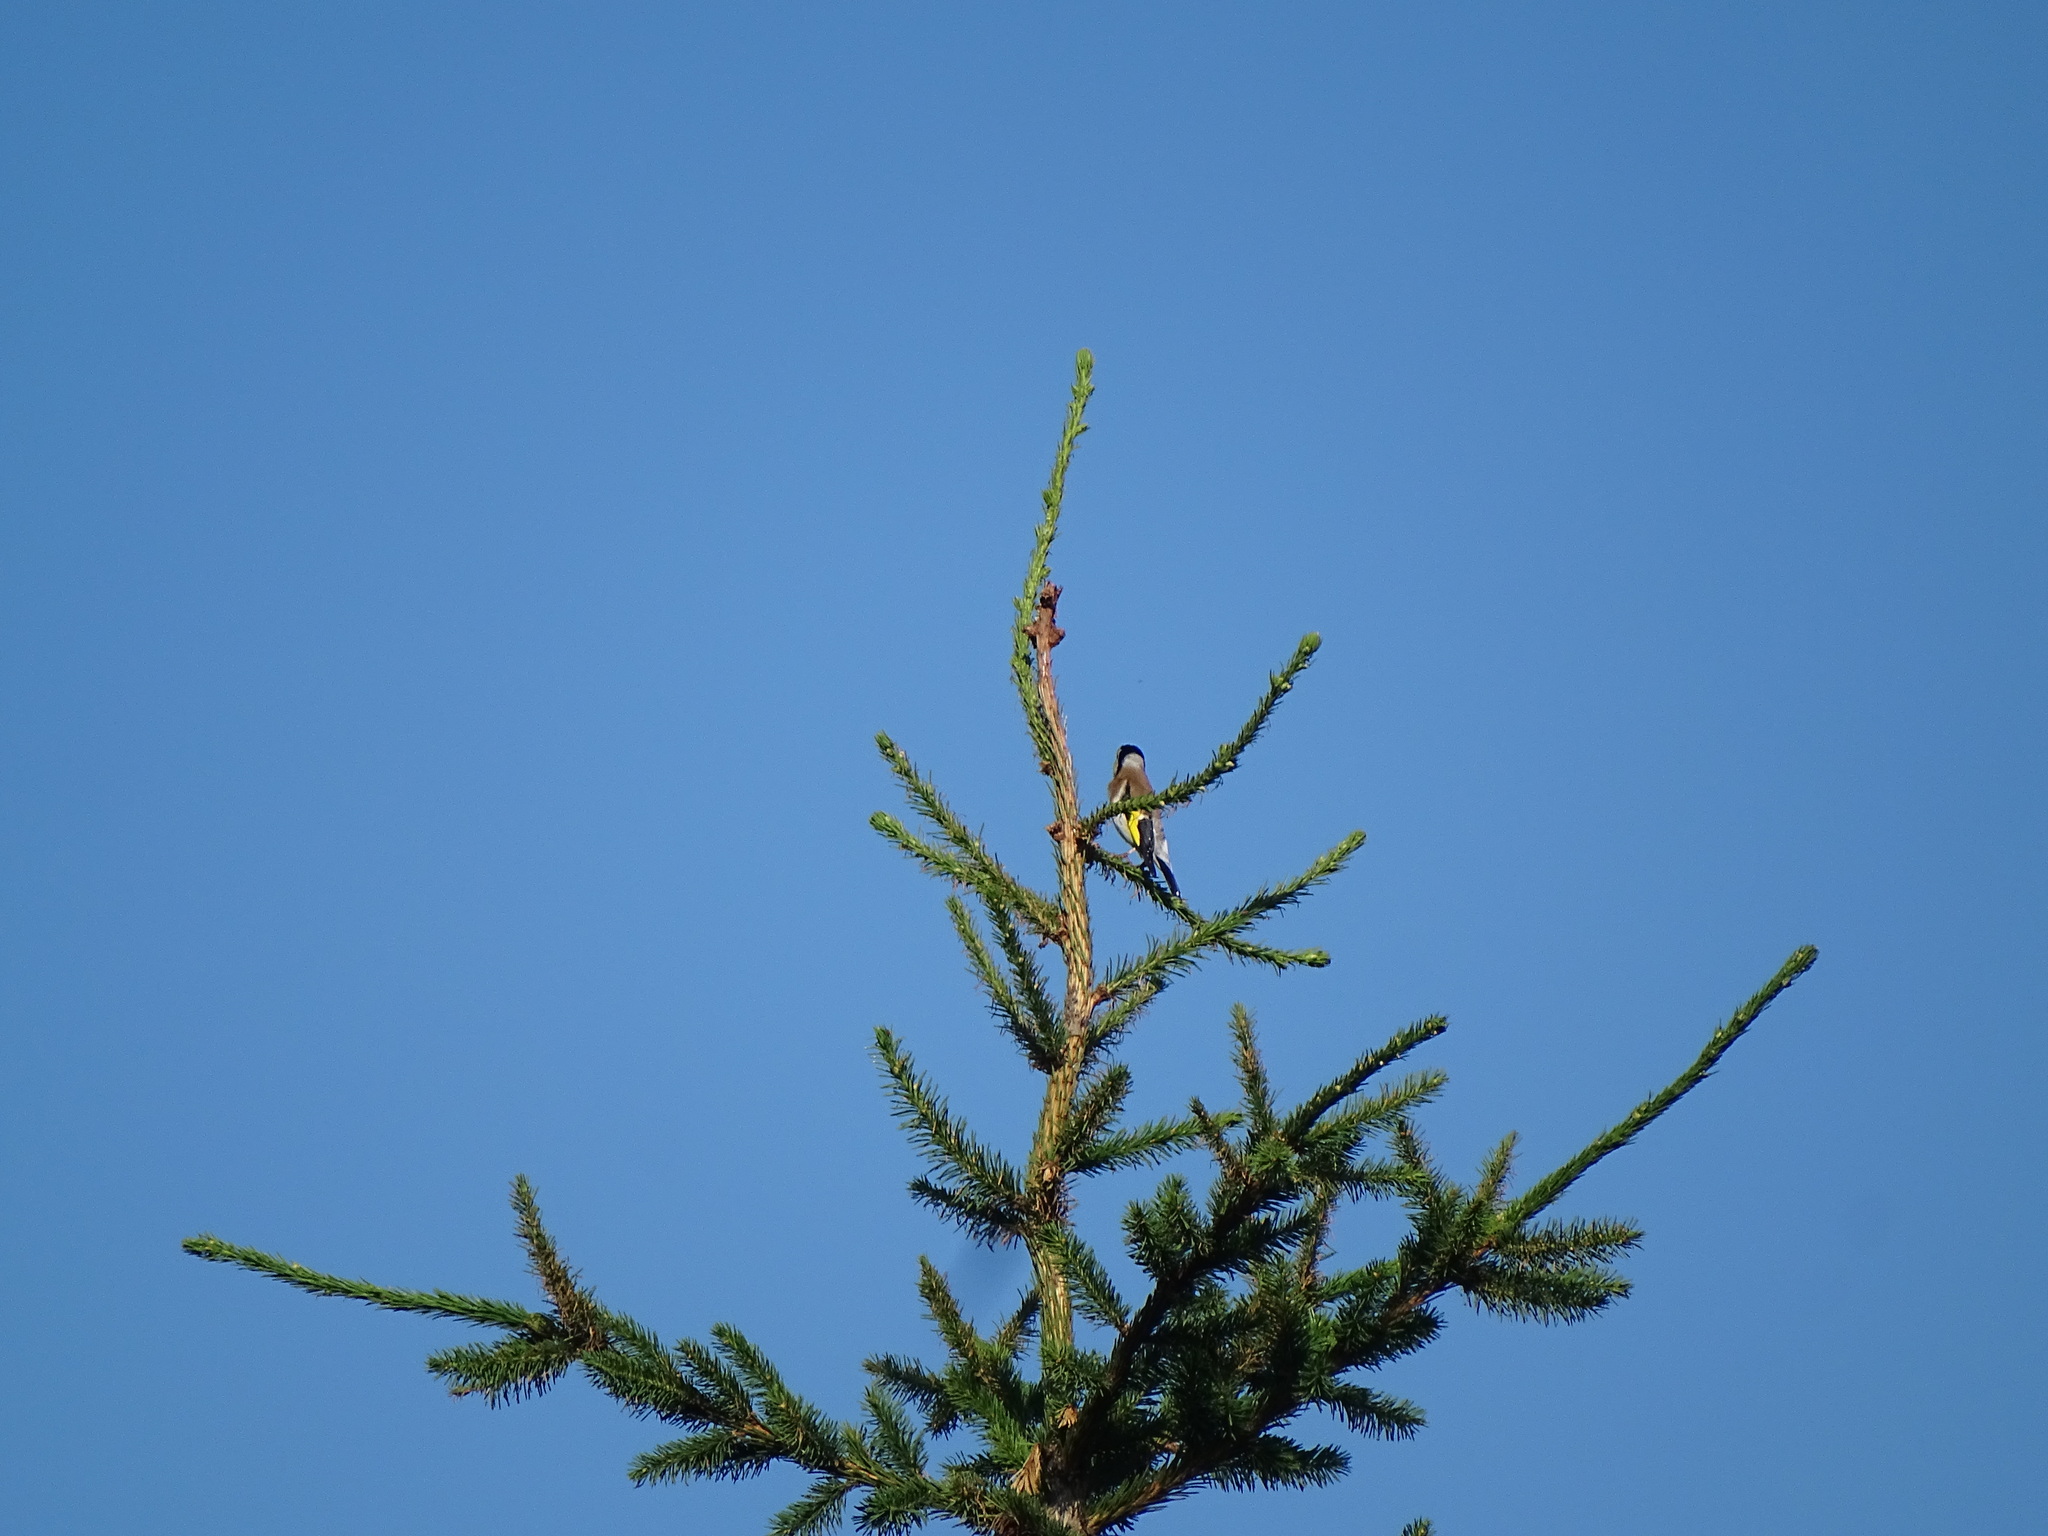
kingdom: Animalia
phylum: Chordata
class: Aves
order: Passeriformes
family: Fringillidae
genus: Carduelis
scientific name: Carduelis carduelis
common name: European goldfinch
